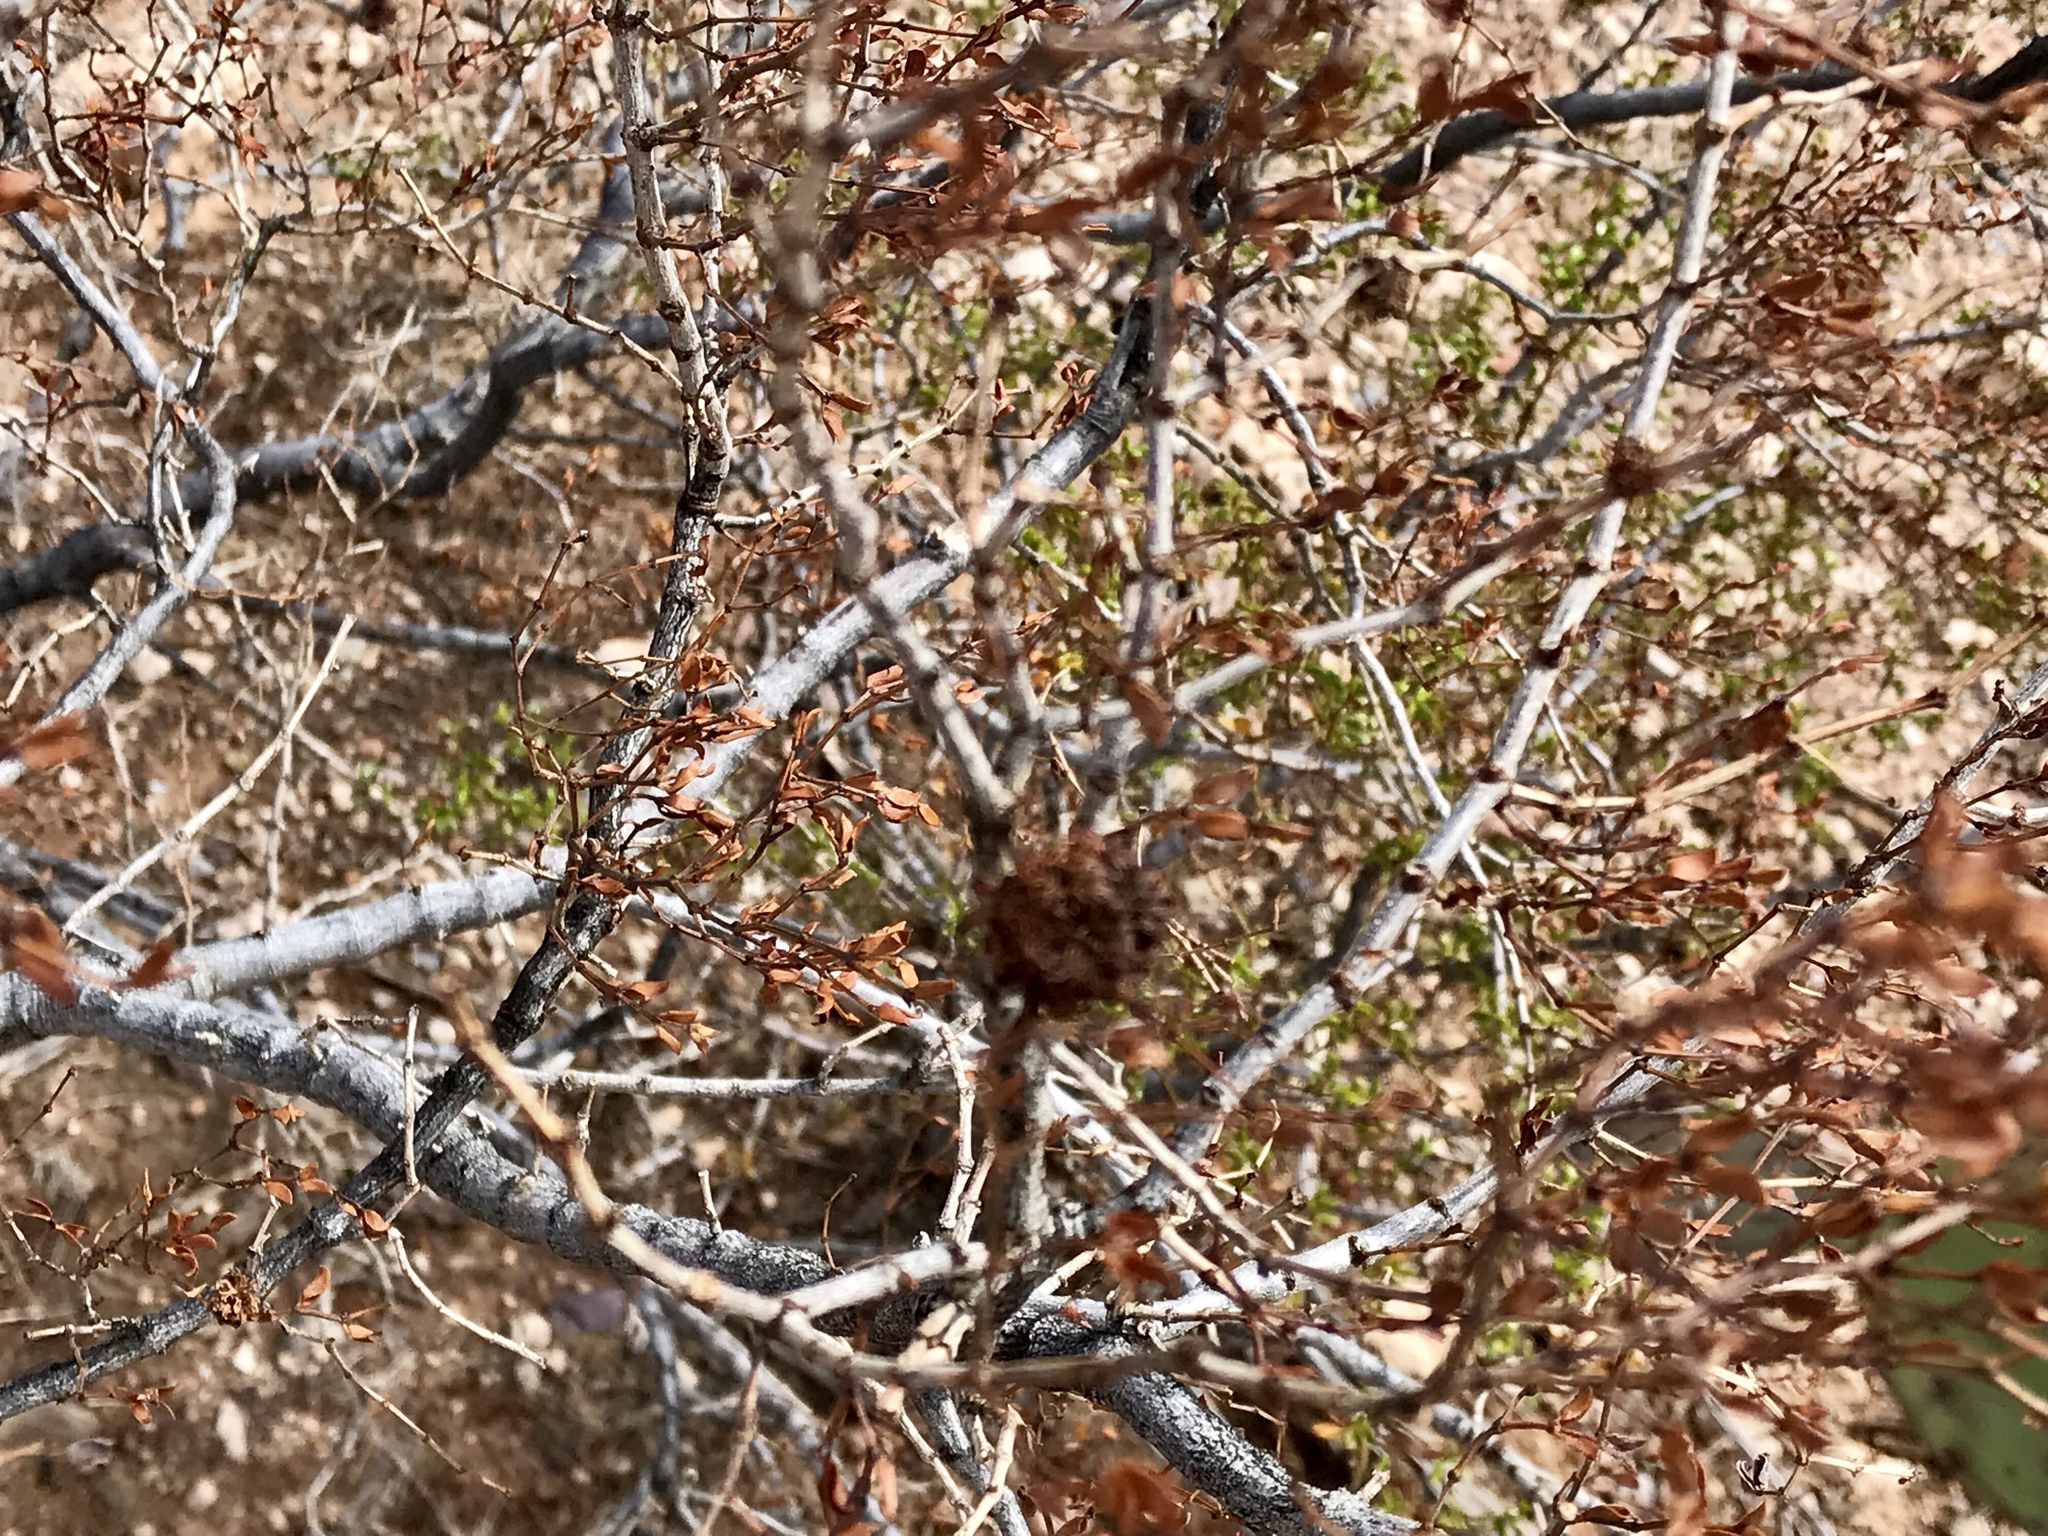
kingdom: Animalia
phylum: Arthropoda
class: Insecta
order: Diptera
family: Cecidomyiidae
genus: Asphondylia
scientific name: Asphondylia auripila
